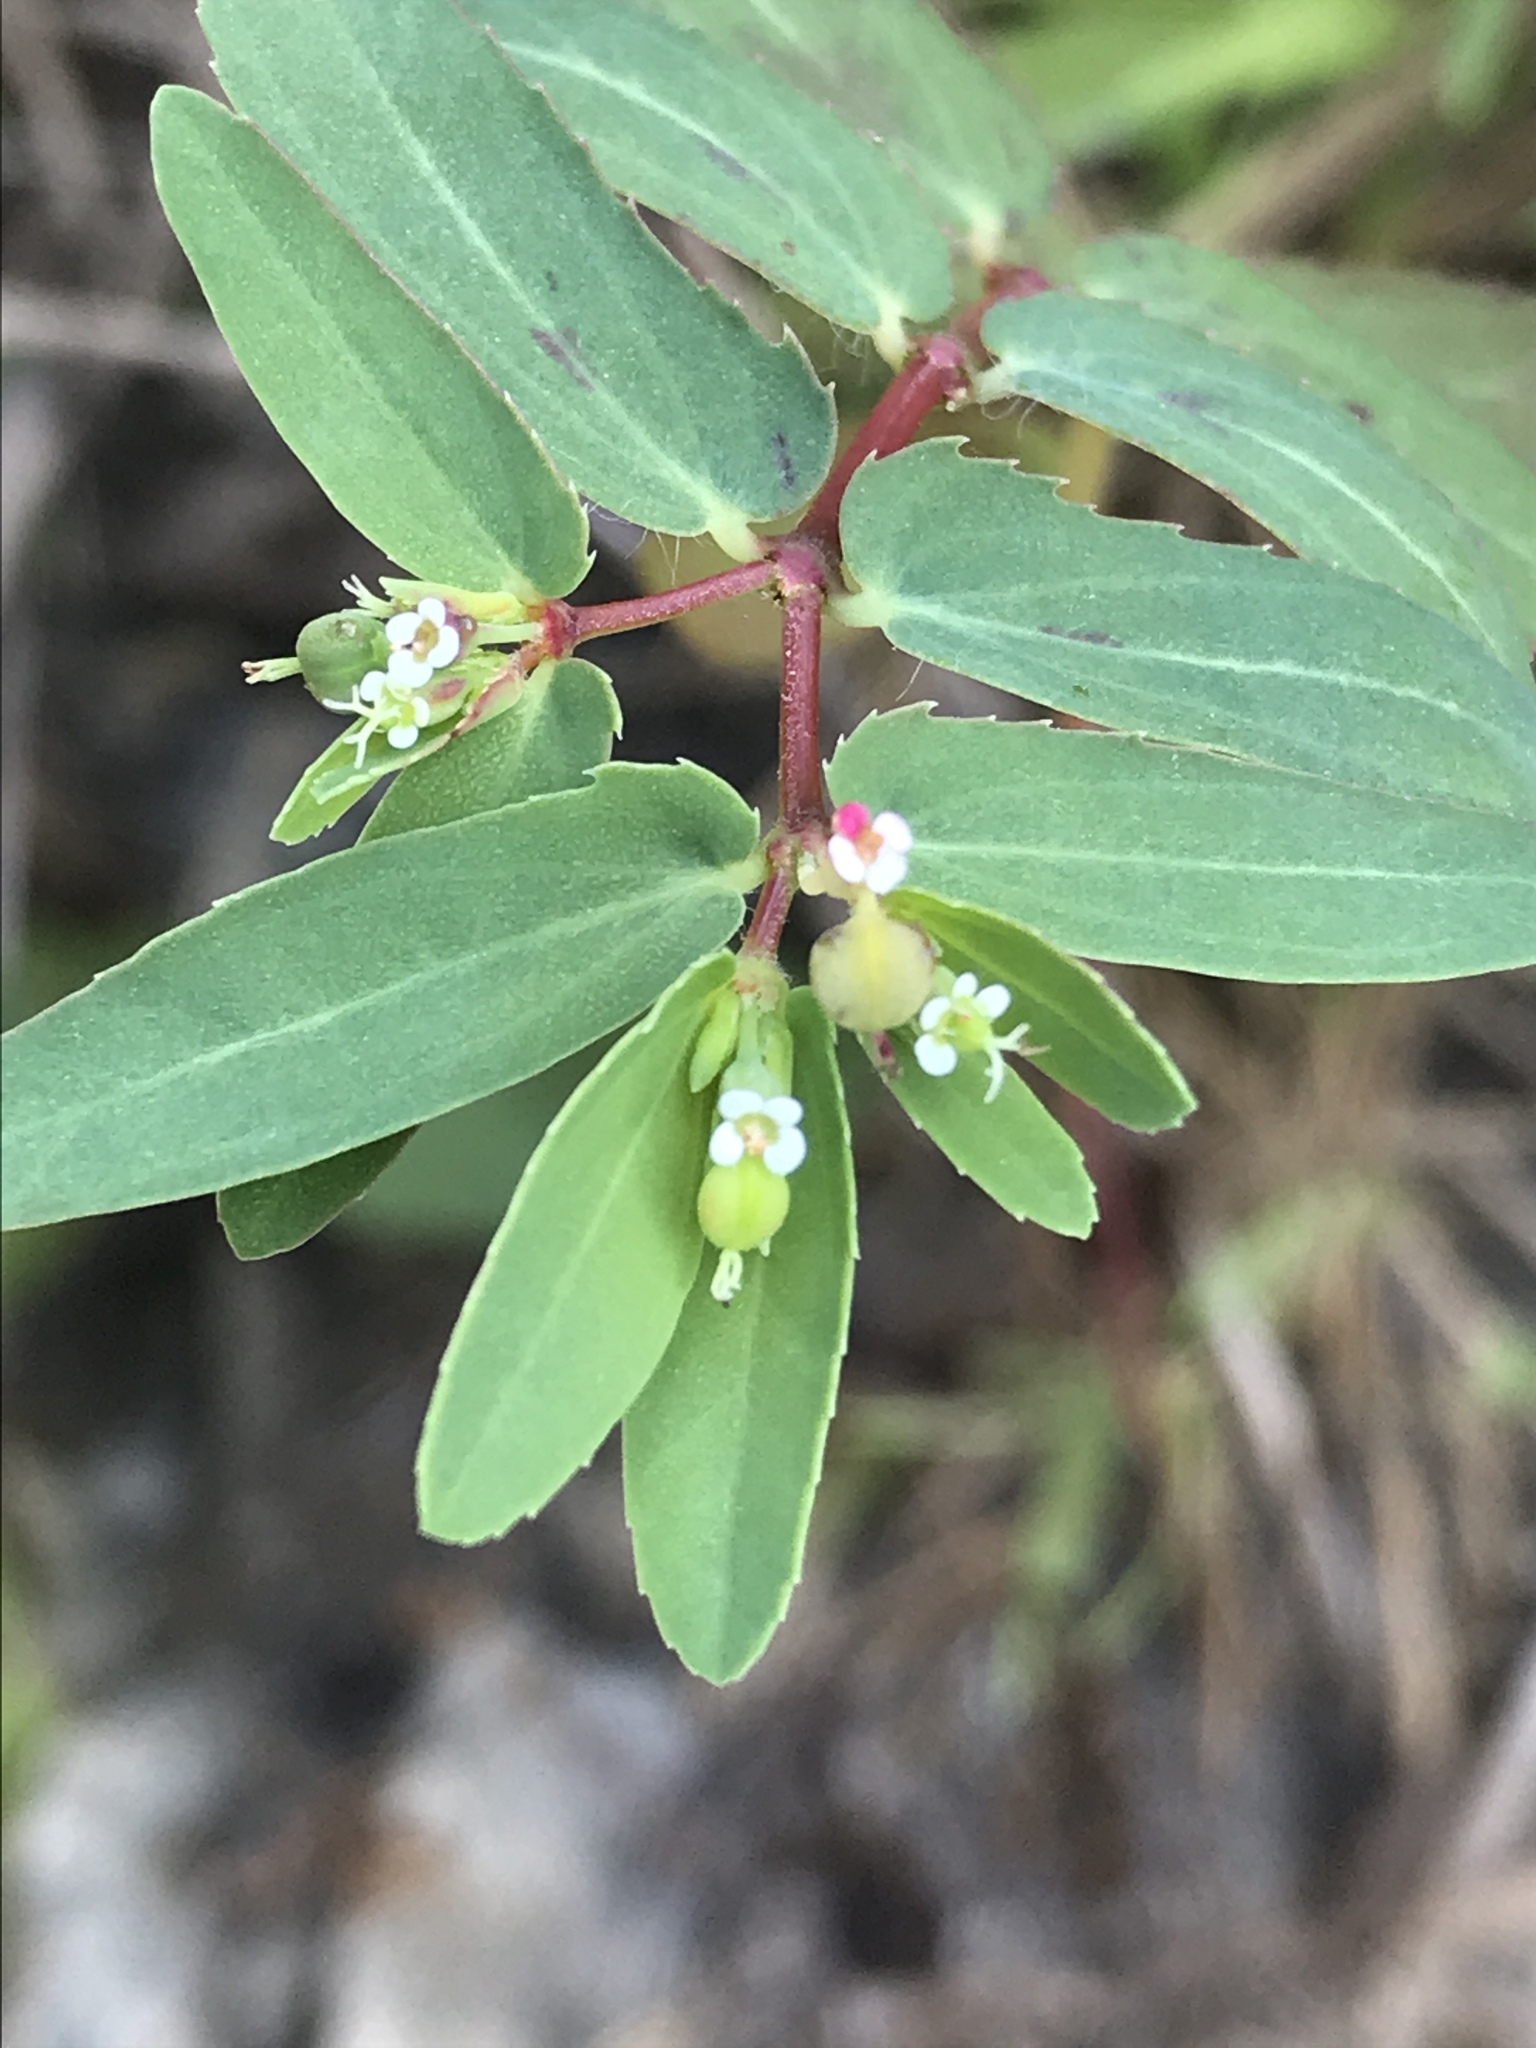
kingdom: Plantae
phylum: Tracheophyta
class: Magnoliopsida
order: Malpighiales
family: Euphorbiaceae
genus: Euphorbia
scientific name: Euphorbia nutans
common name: Eyebane
